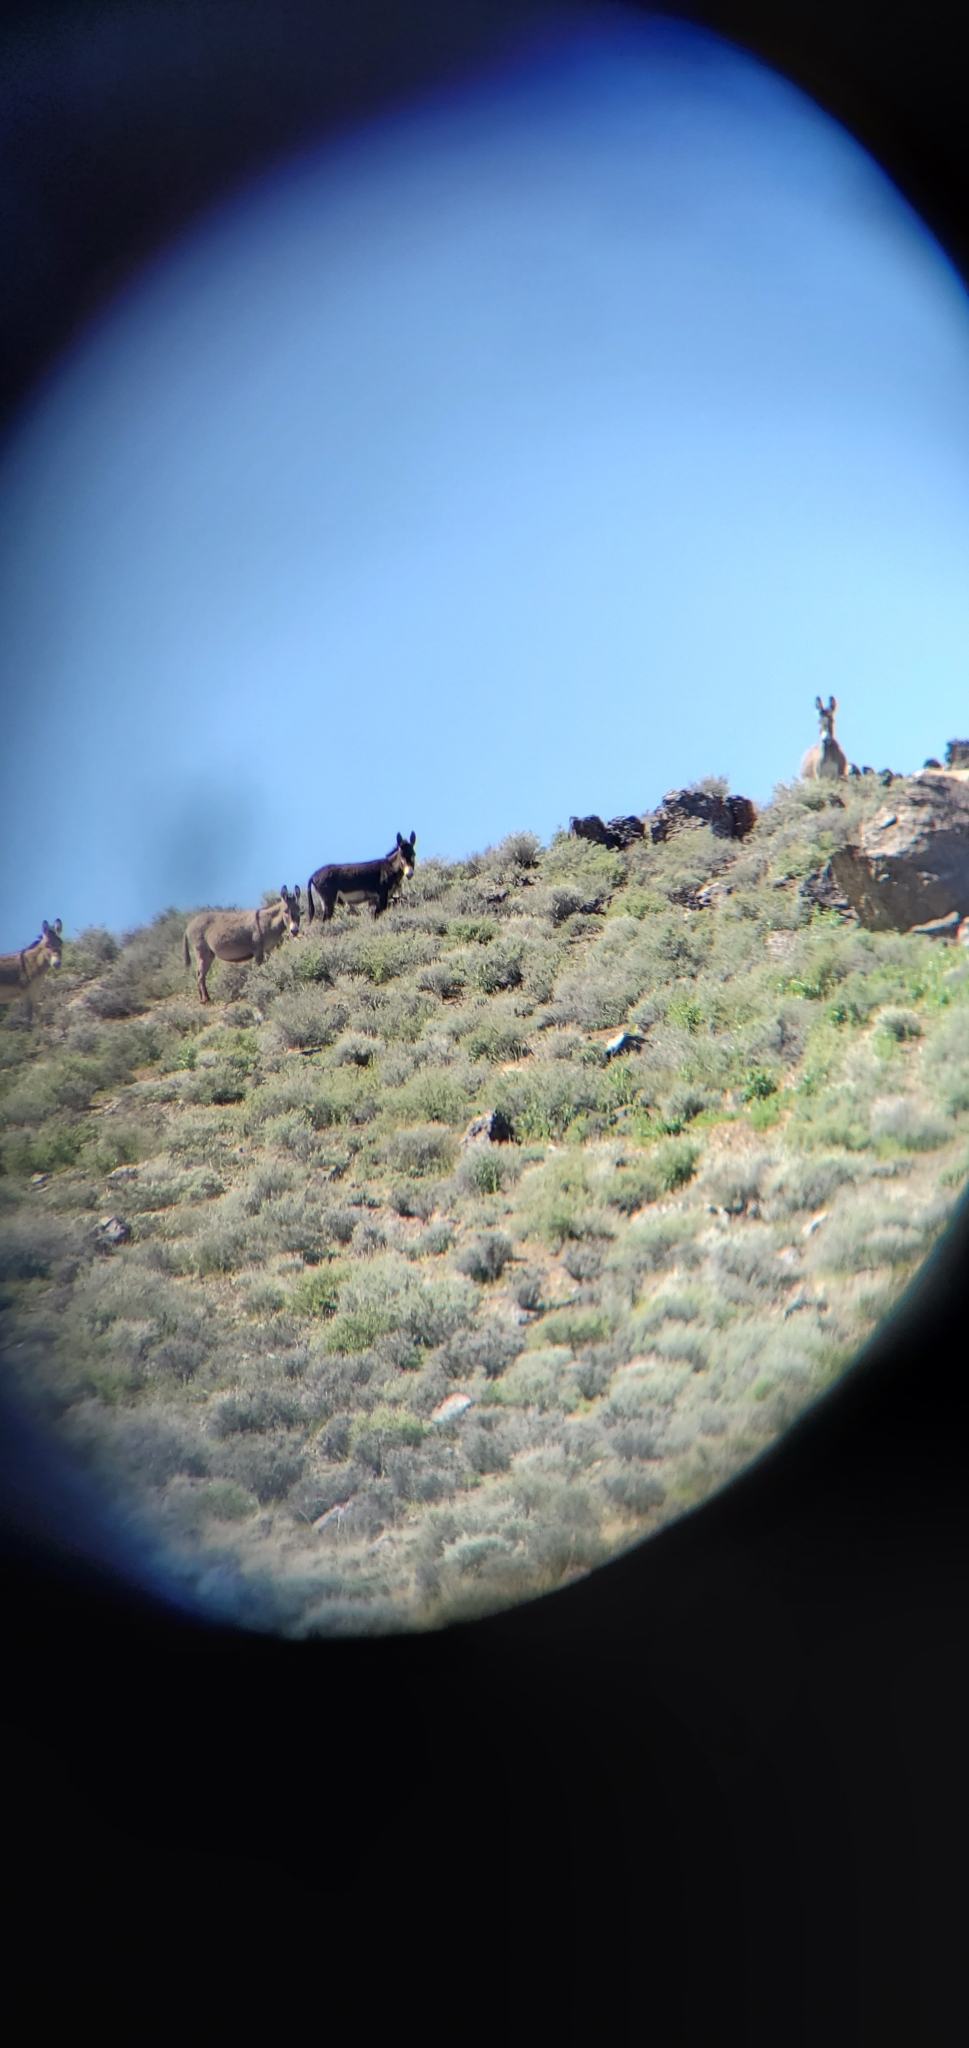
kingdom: Animalia
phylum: Chordata
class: Mammalia
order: Perissodactyla
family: Equidae
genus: Equus
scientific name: Equus asinus
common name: Ass
